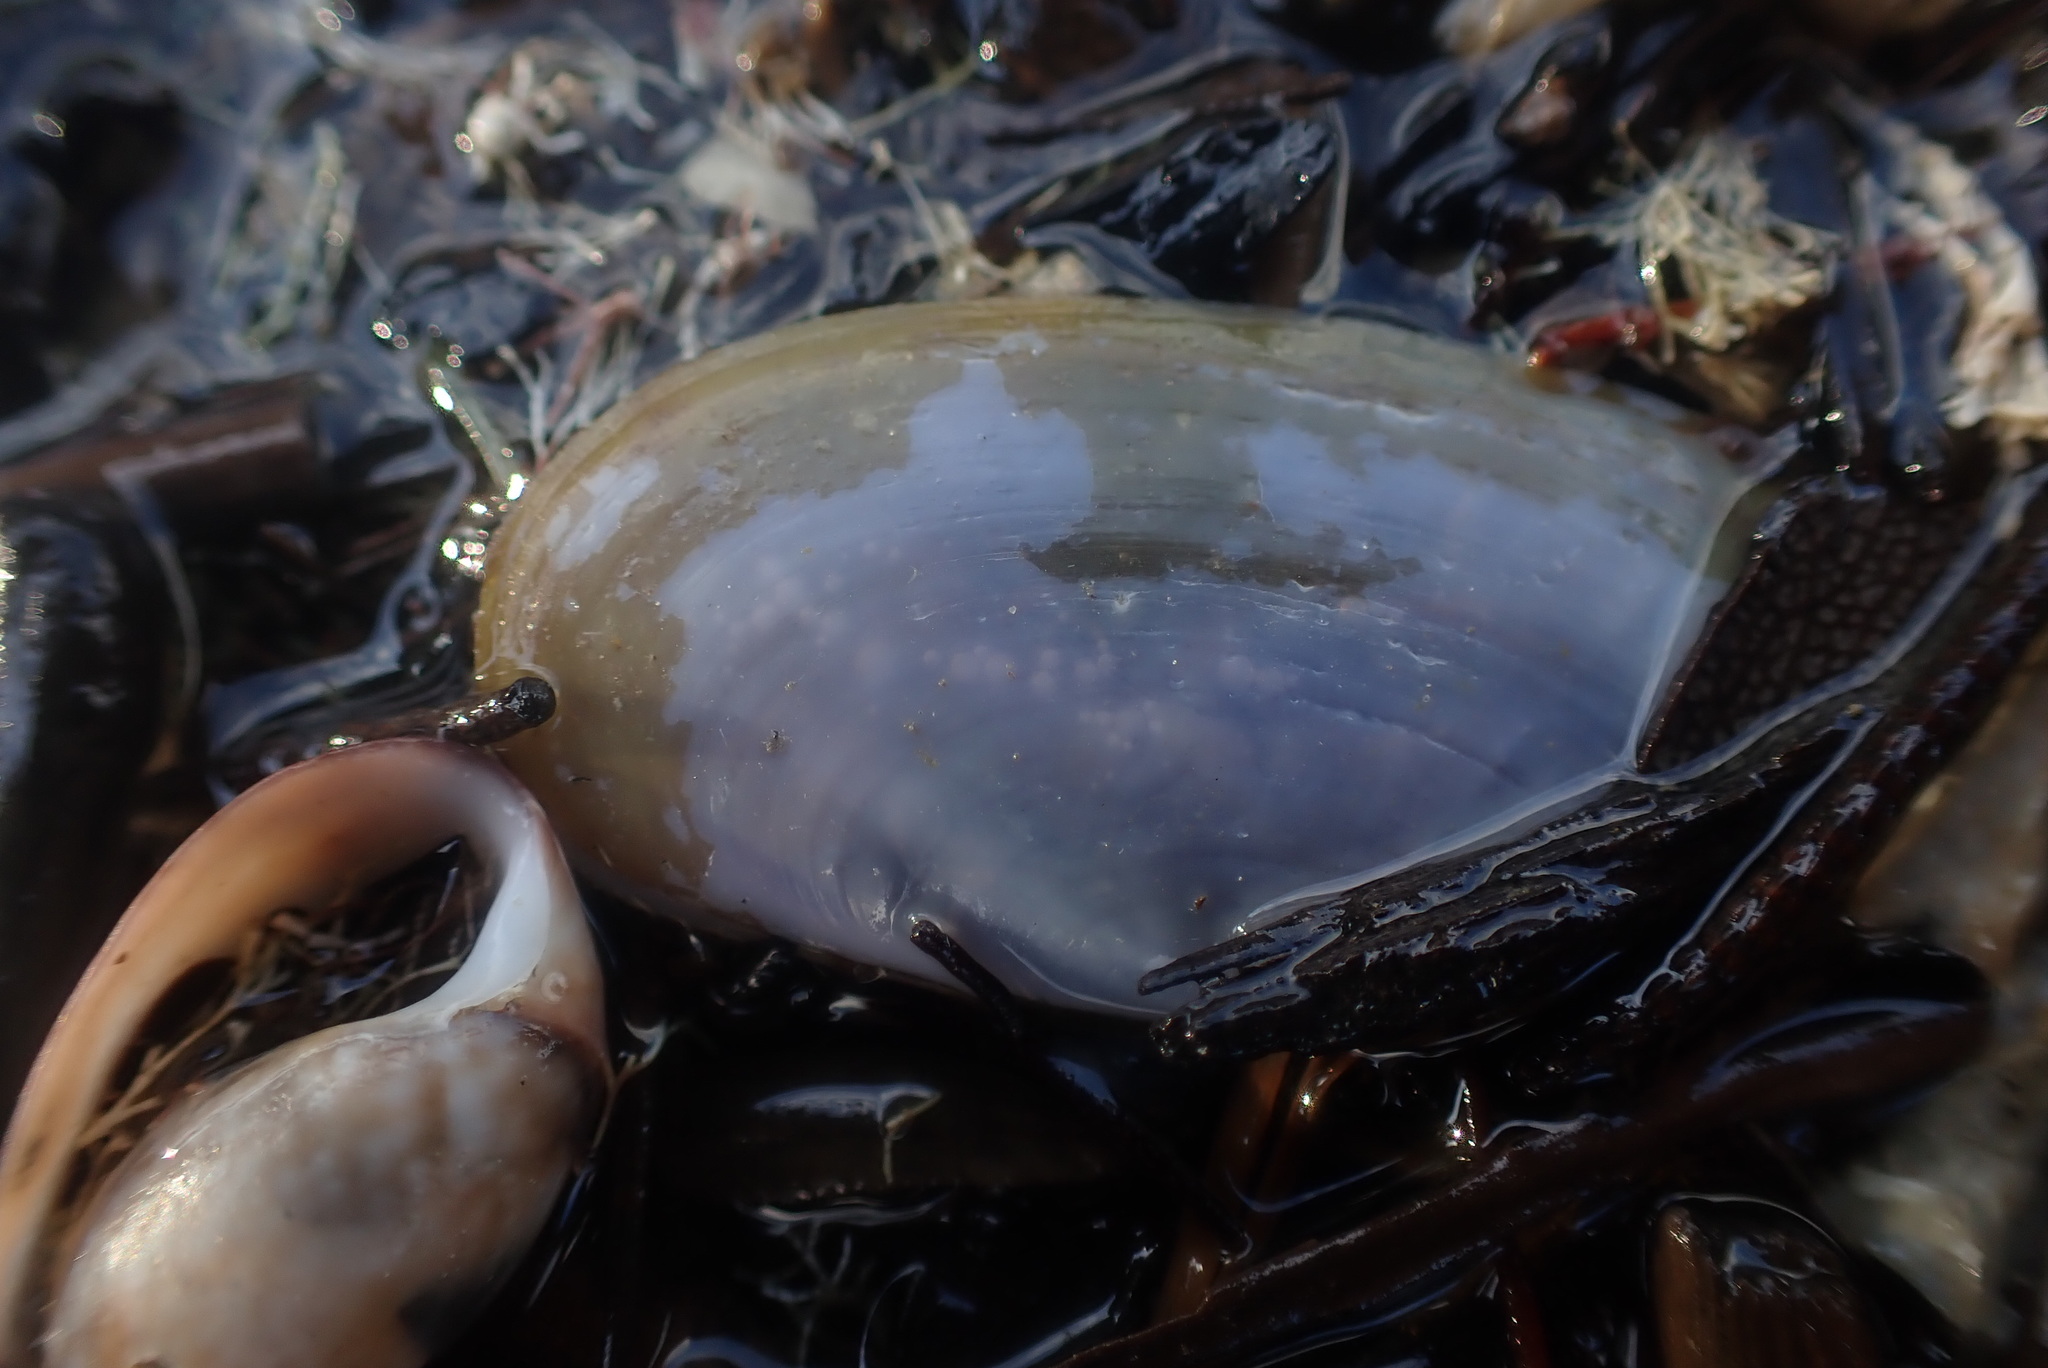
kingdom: Animalia
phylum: Mollusca
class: Bivalvia
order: Cardiida
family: Psammobiidae
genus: Hiatula
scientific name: Hiatula nitida
